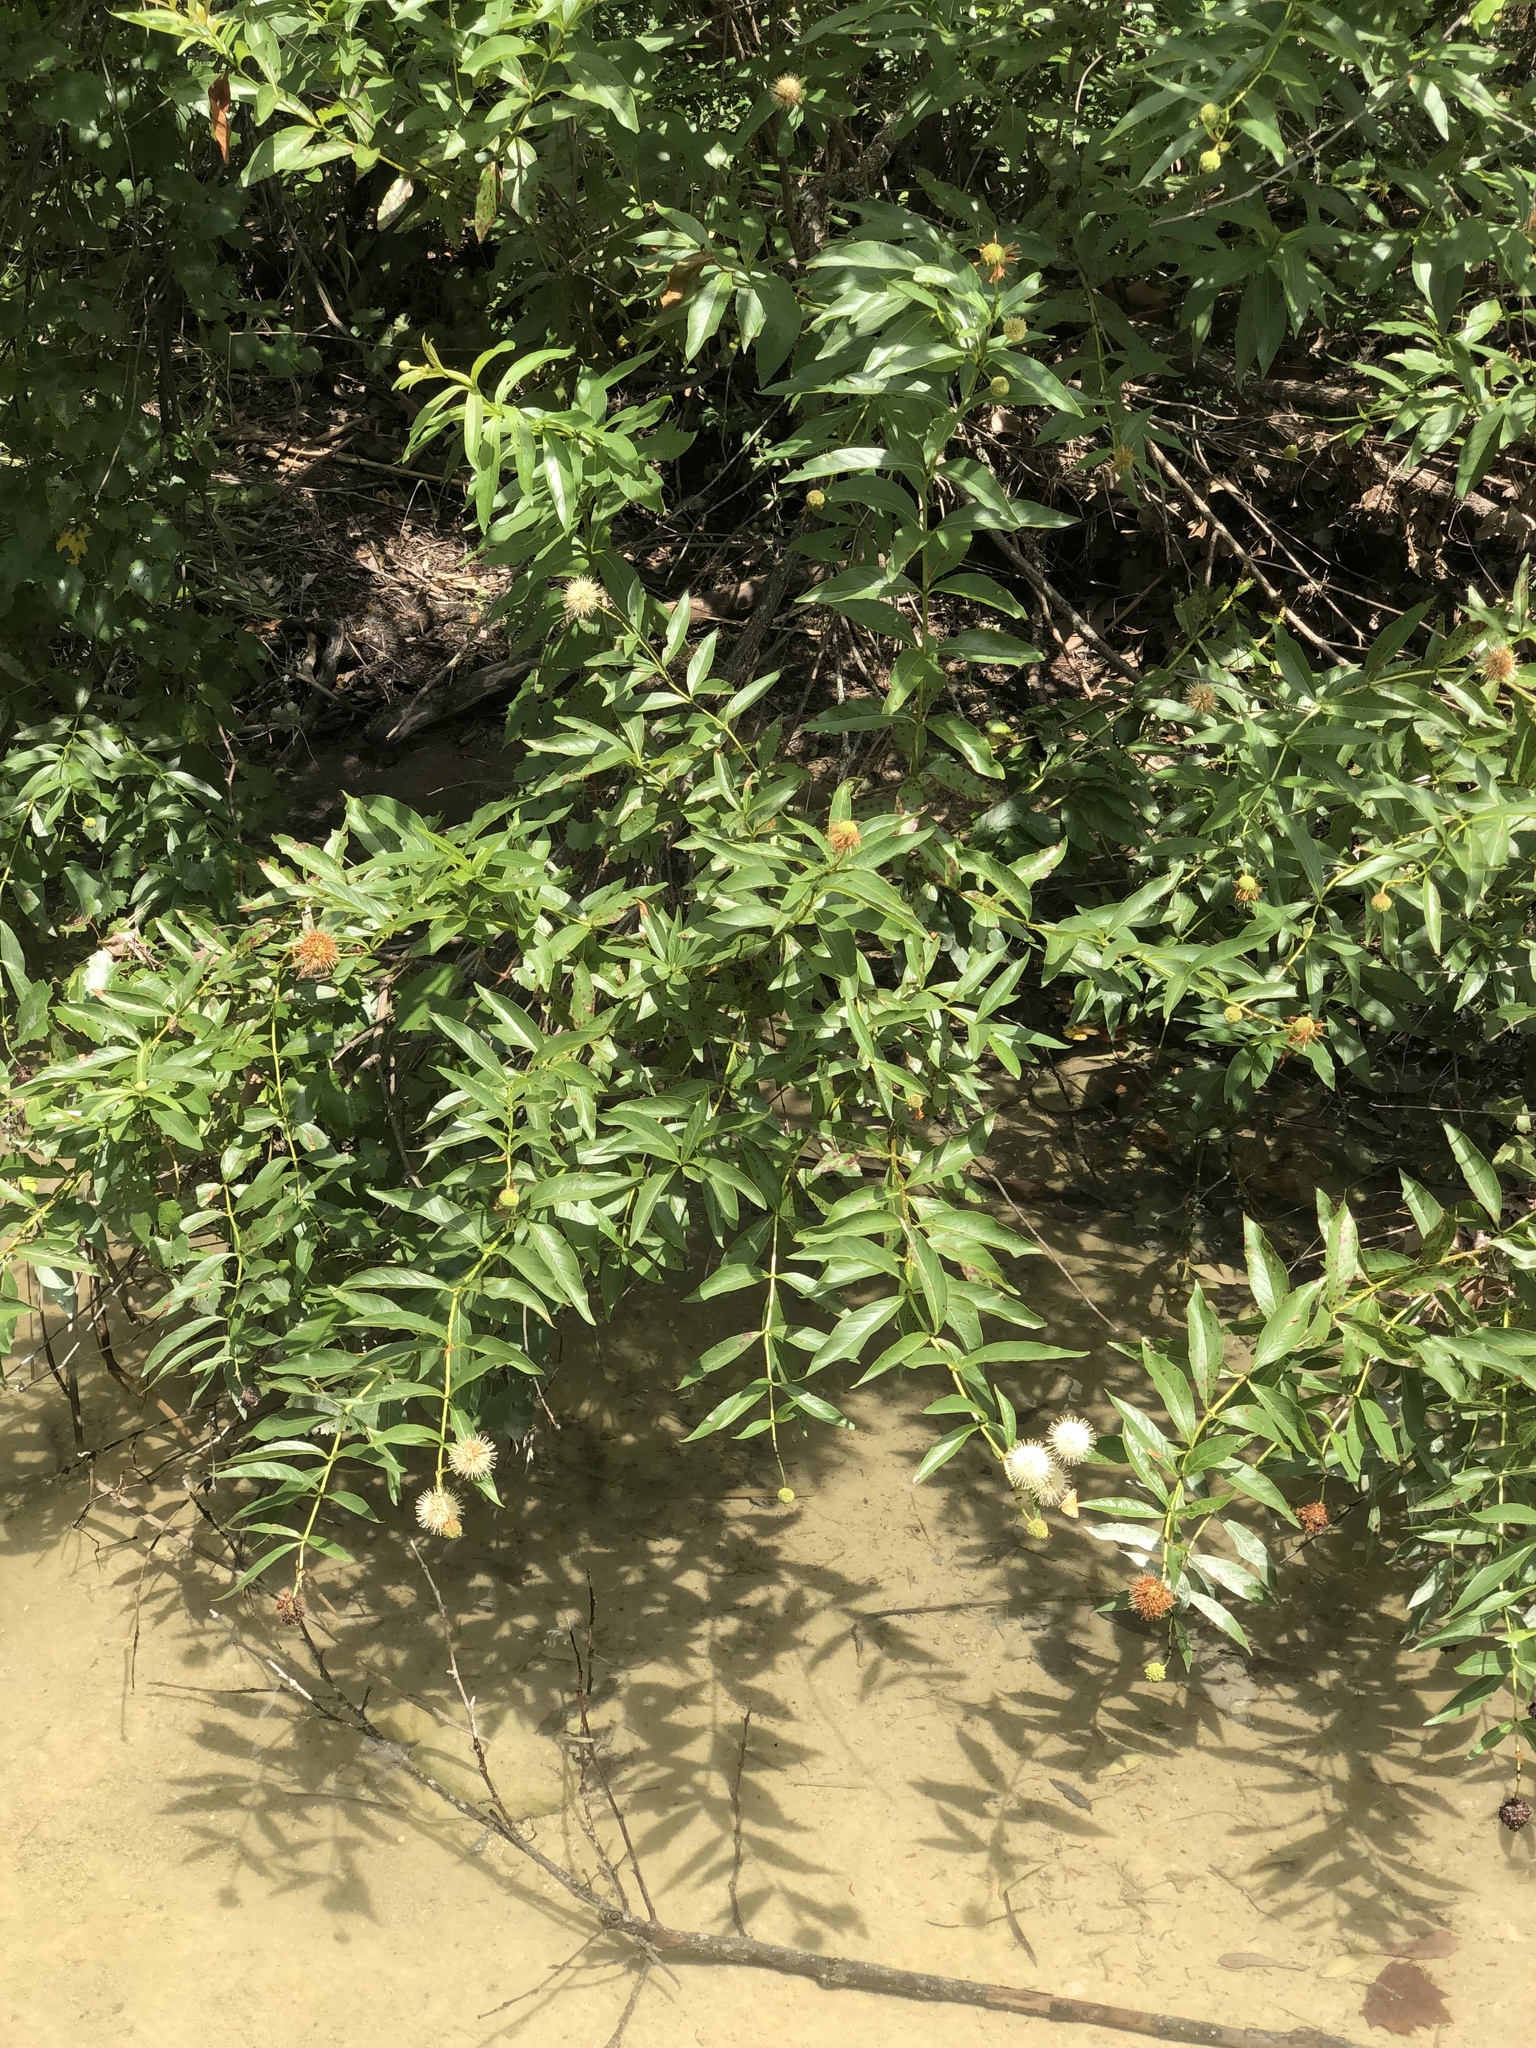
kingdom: Plantae
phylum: Tracheophyta
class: Magnoliopsida
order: Gentianales
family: Rubiaceae
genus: Cephalanthus
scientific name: Cephalanthus occidentalis
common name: Button-willow
